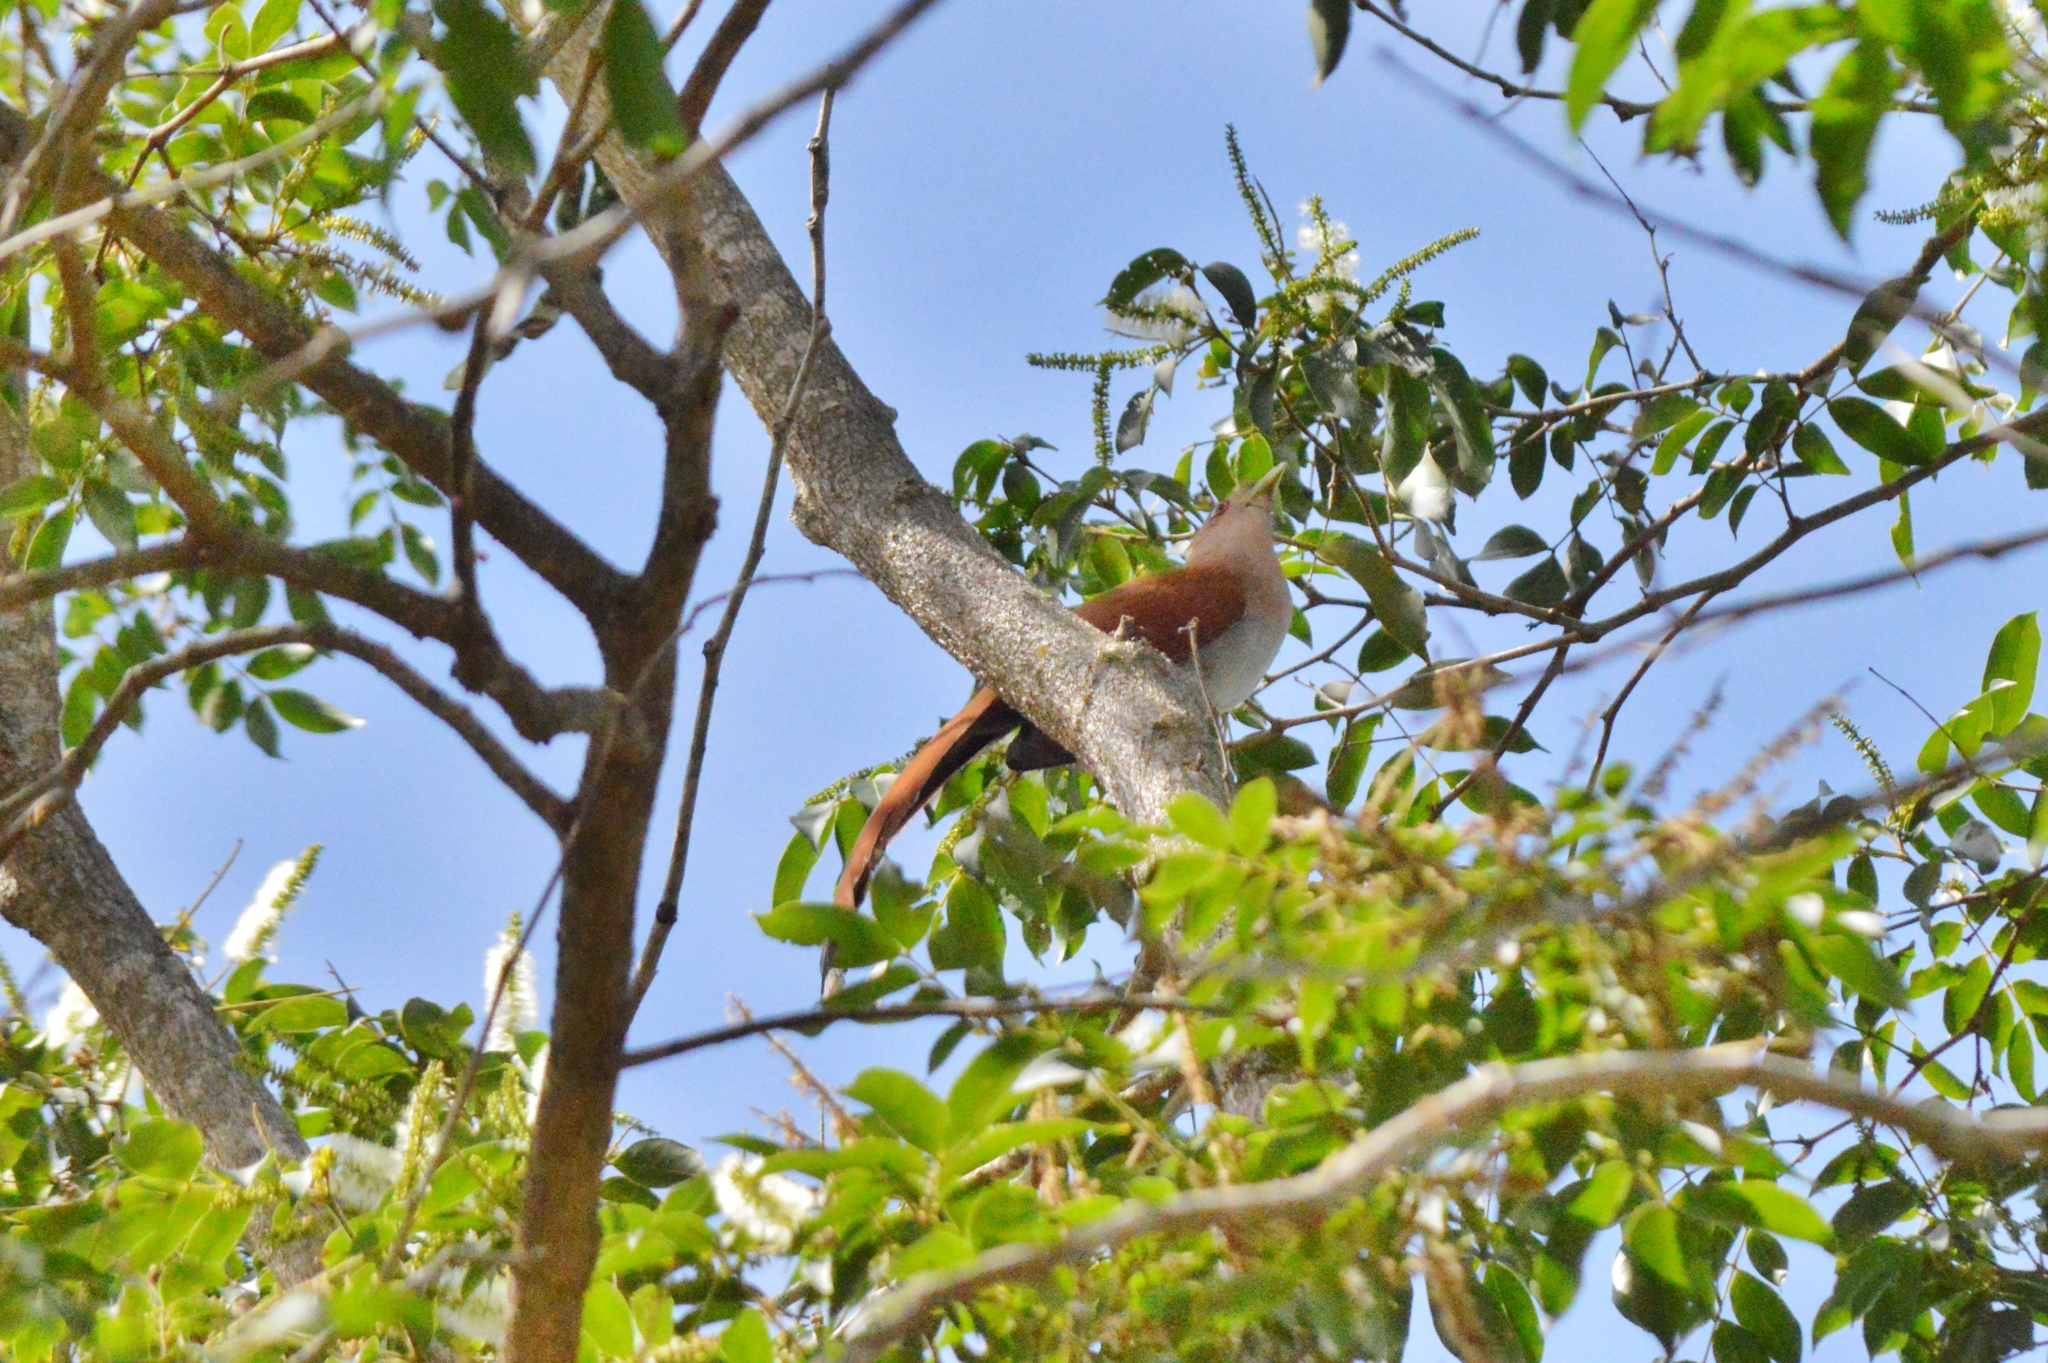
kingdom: Animalia
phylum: Chordata
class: Aves
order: Cuculiformes
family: Cuculidae
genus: Piaya
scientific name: Piaya cayana
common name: Squirrel cuckoo
